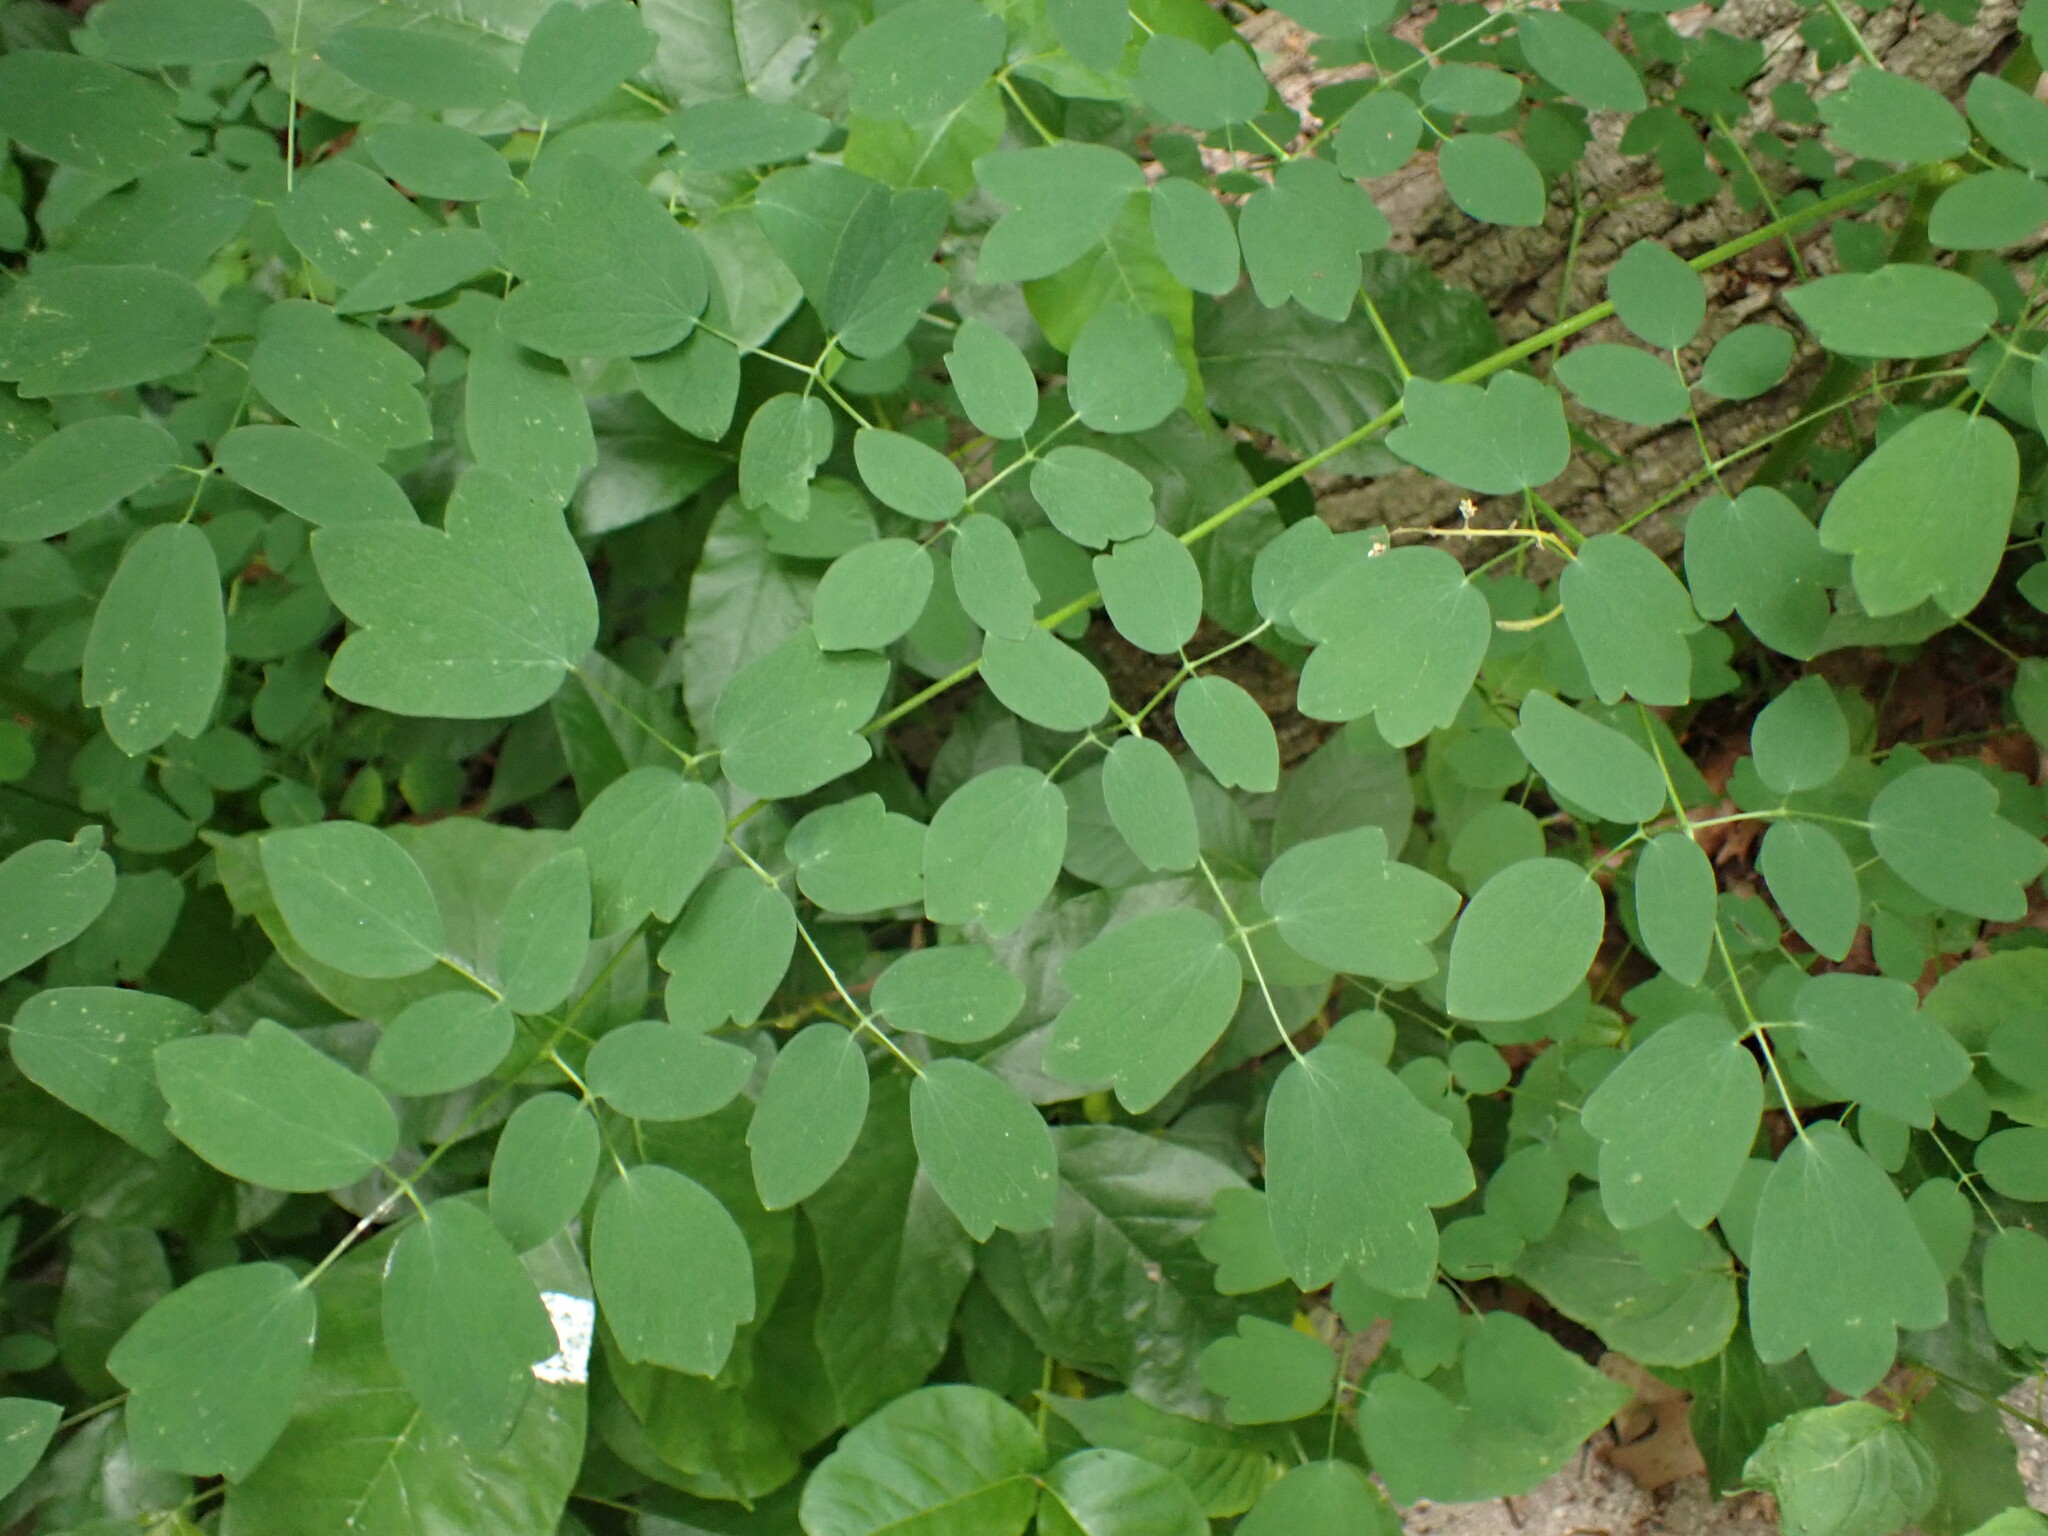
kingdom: Plantae
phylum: Tracheophyta
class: Magnoliopsida
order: Ranunculales
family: Ranunculaceae
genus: Thalictrum
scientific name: Thalictrum pubescens
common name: King-of-the-meadow
